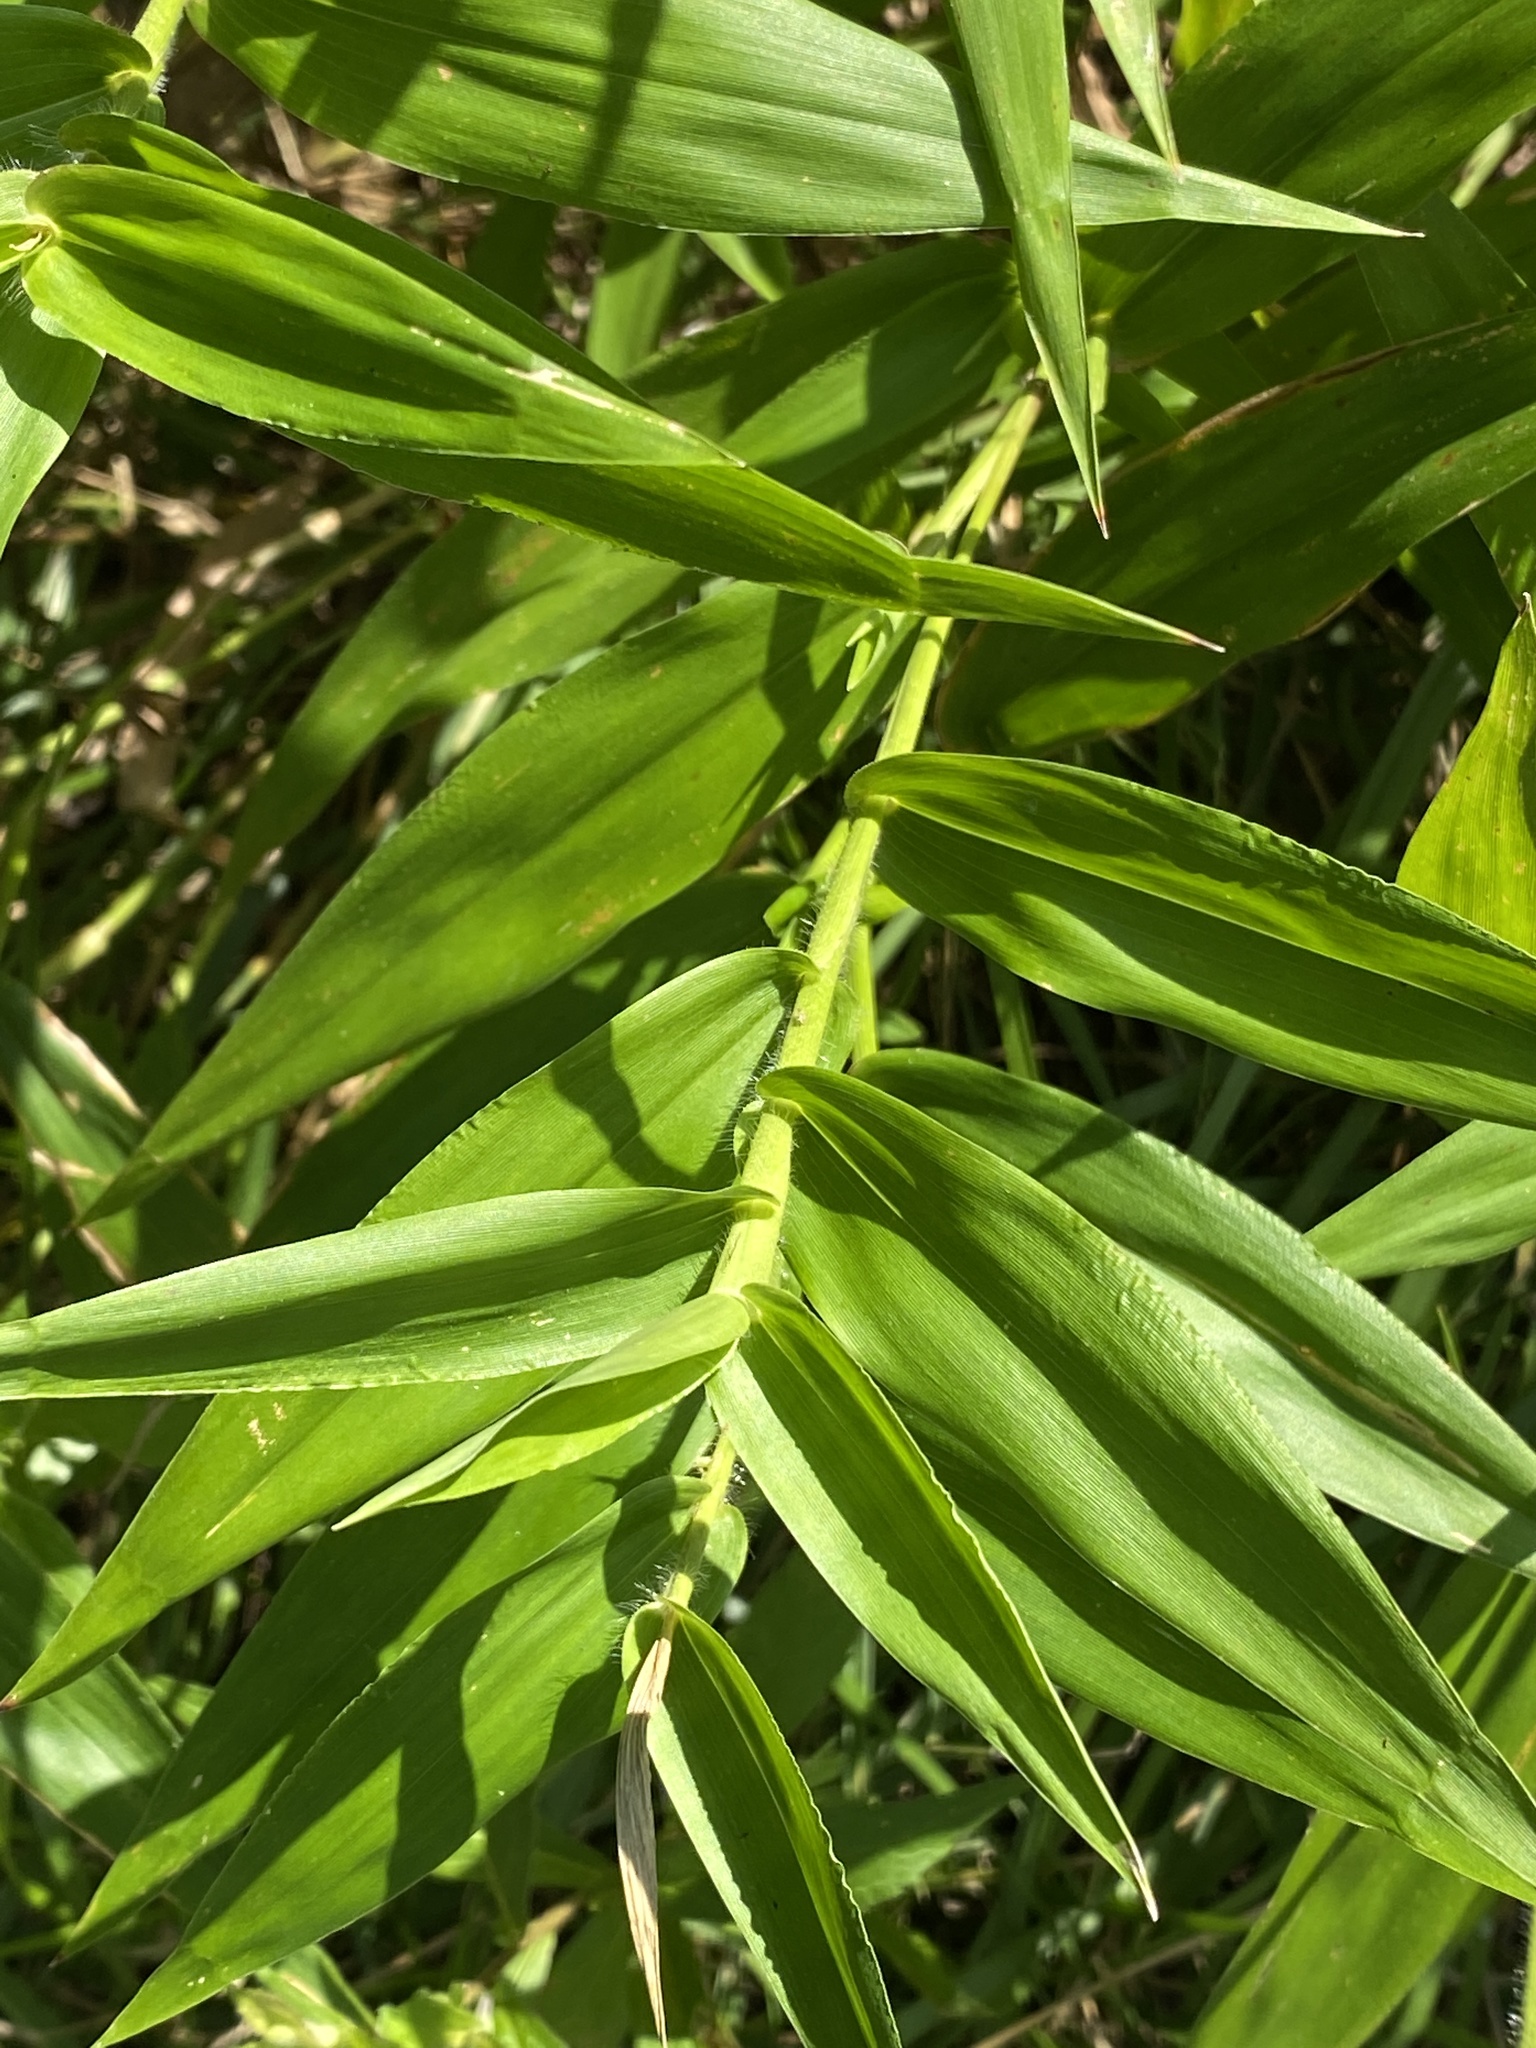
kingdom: Plantae
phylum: Tracheophyta
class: Liliopsida
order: Poales
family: Poaceae
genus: Dichanthelium
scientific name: Dichanthelium clandestinum
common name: Deer-tongue grass
